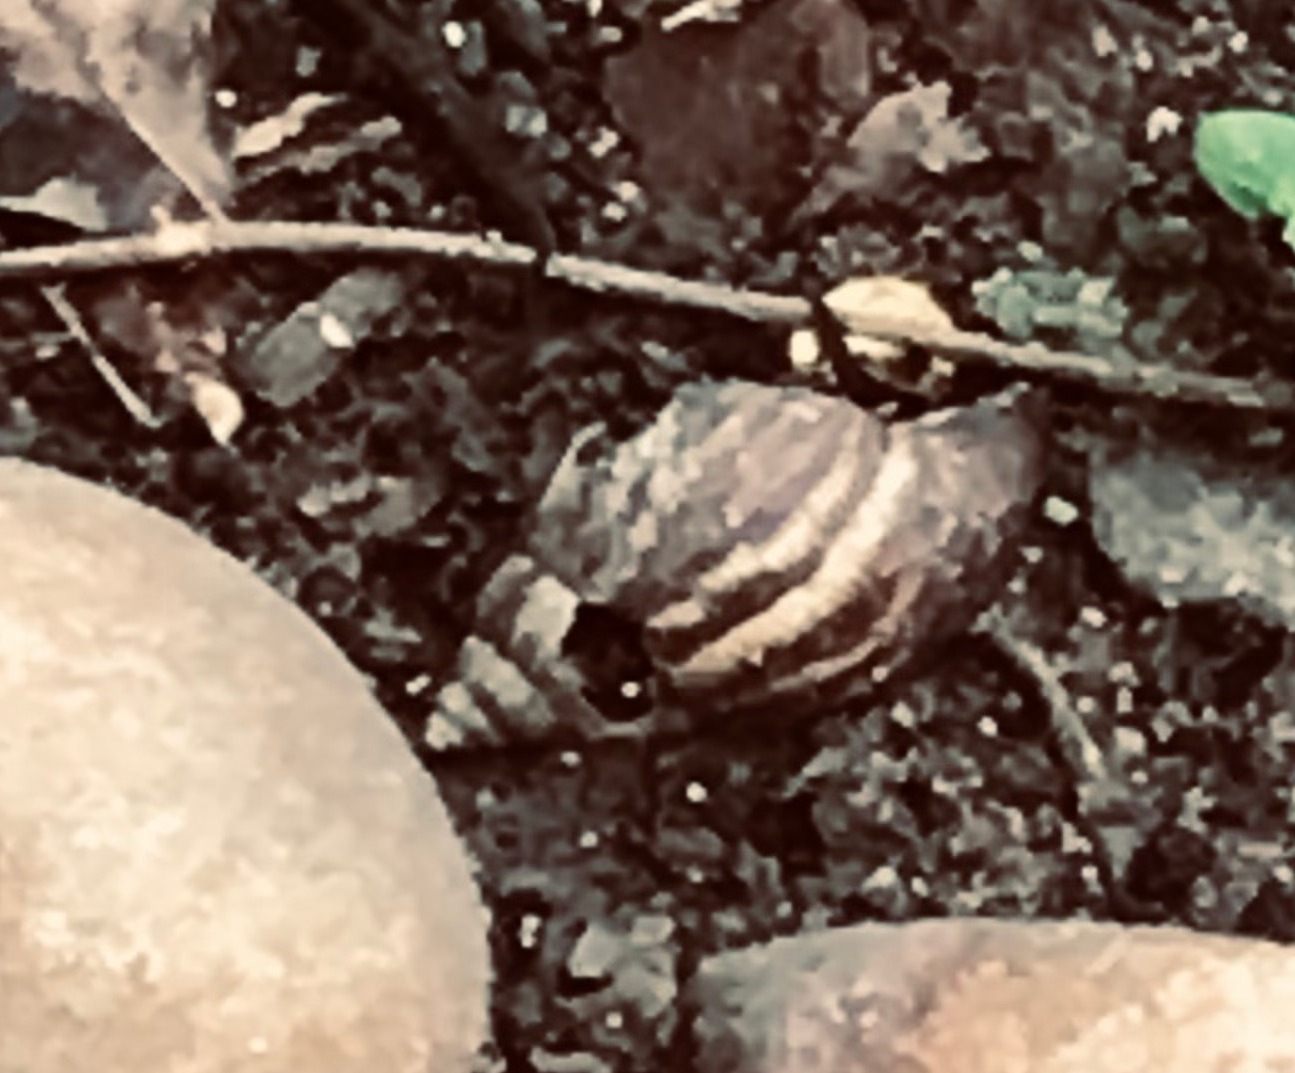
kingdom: Animalia
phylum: Mollusca
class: Gastropoda
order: Stylommatophora
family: Achatinidae
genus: Lissachatina
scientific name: Lissachatina fulica
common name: Giant african snail
